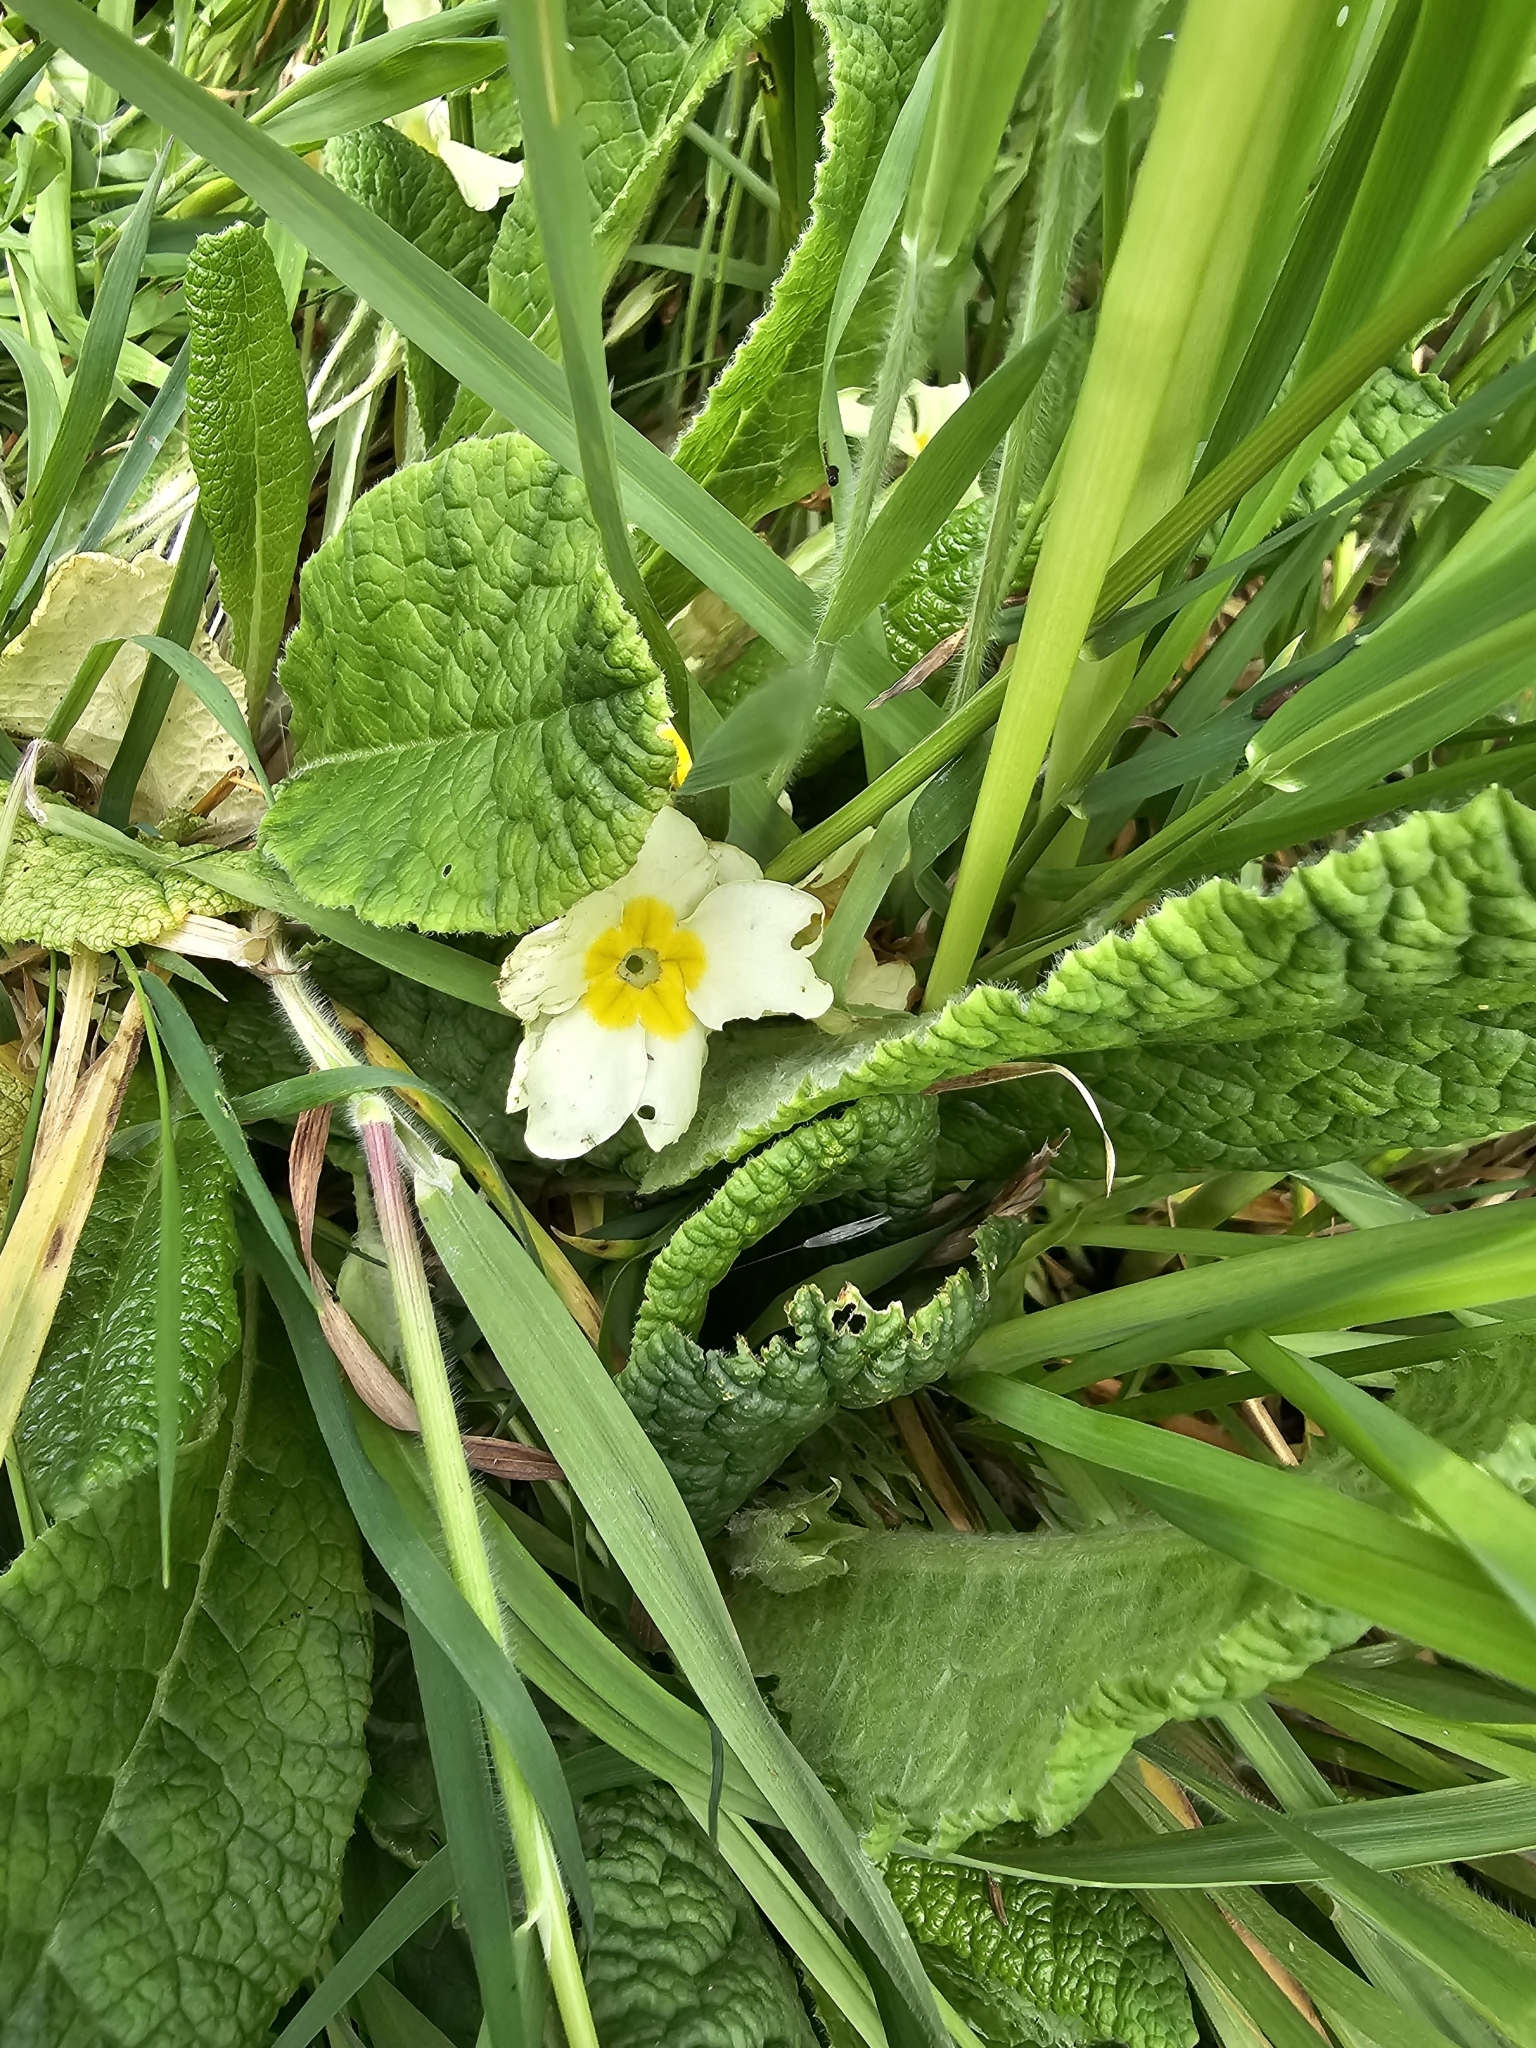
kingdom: Plantae
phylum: Tracheophyta
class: Magnoliopsida
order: Ericales
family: Primulaceae
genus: Primula
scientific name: Primula vulgaris
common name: Primrose
